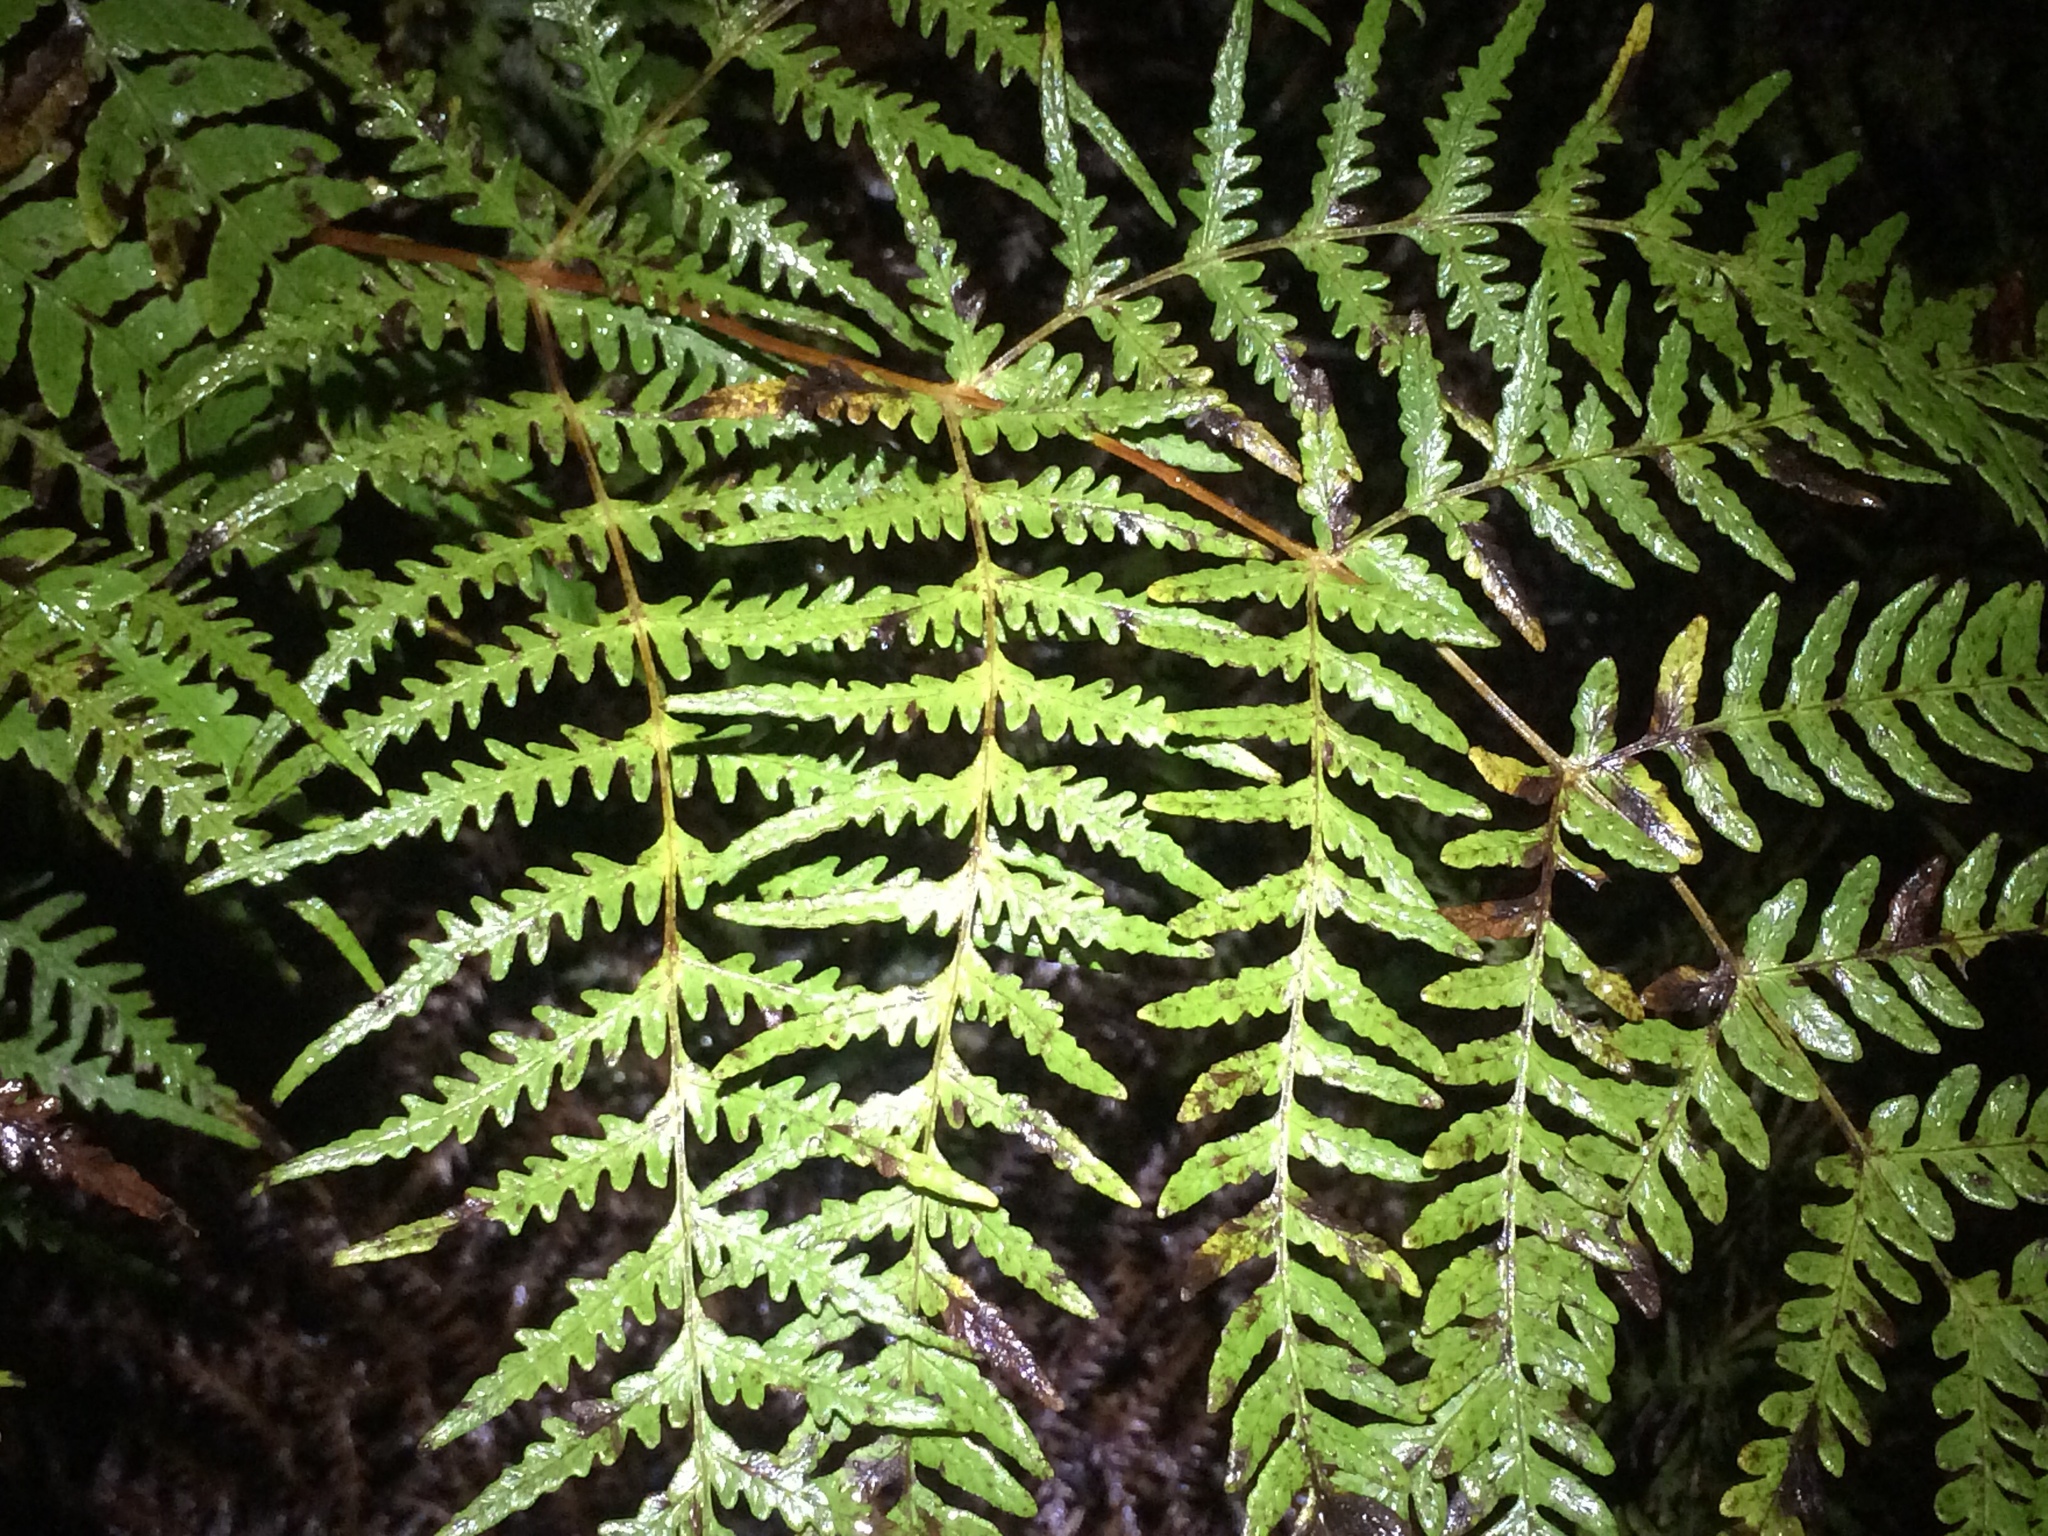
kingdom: Plantae
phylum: Tracheophyta
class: Polypodiopsida
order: Polypodiales
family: Dennstaedtiaceae
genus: Histiopteris
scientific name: Histiopteris incisa
